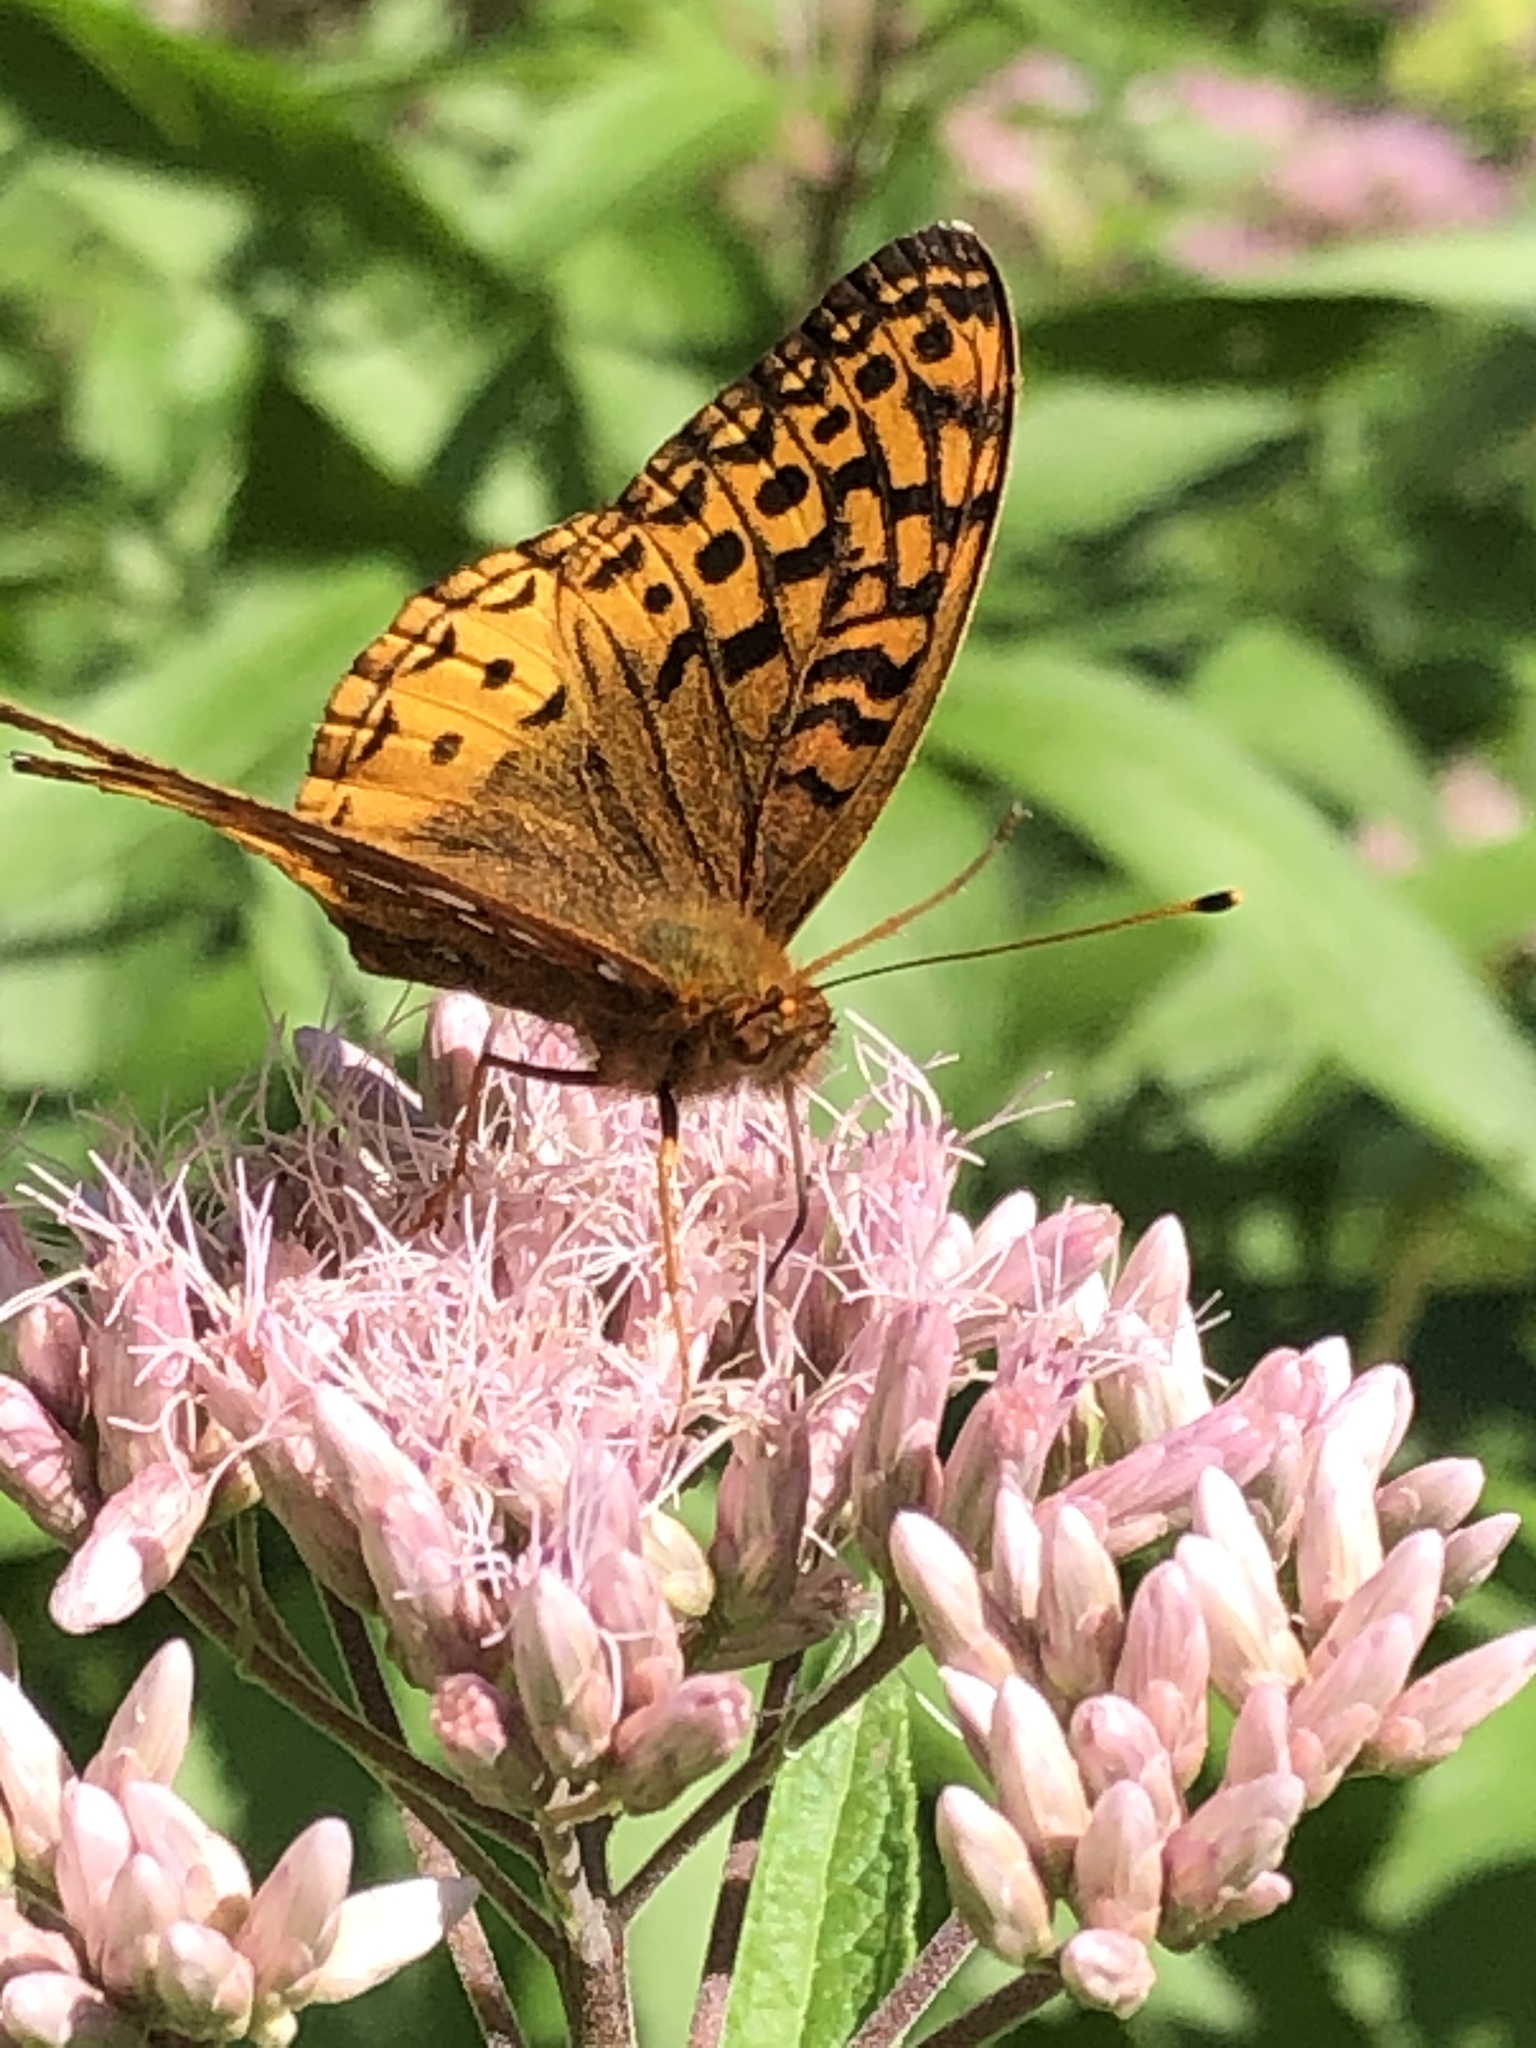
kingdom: Animalia
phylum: Arthropoda
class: Insecta
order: Lepidoptera
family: Nymphalidae
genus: Speyeria
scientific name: Speyeria cybele
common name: Great spangled fritillary
